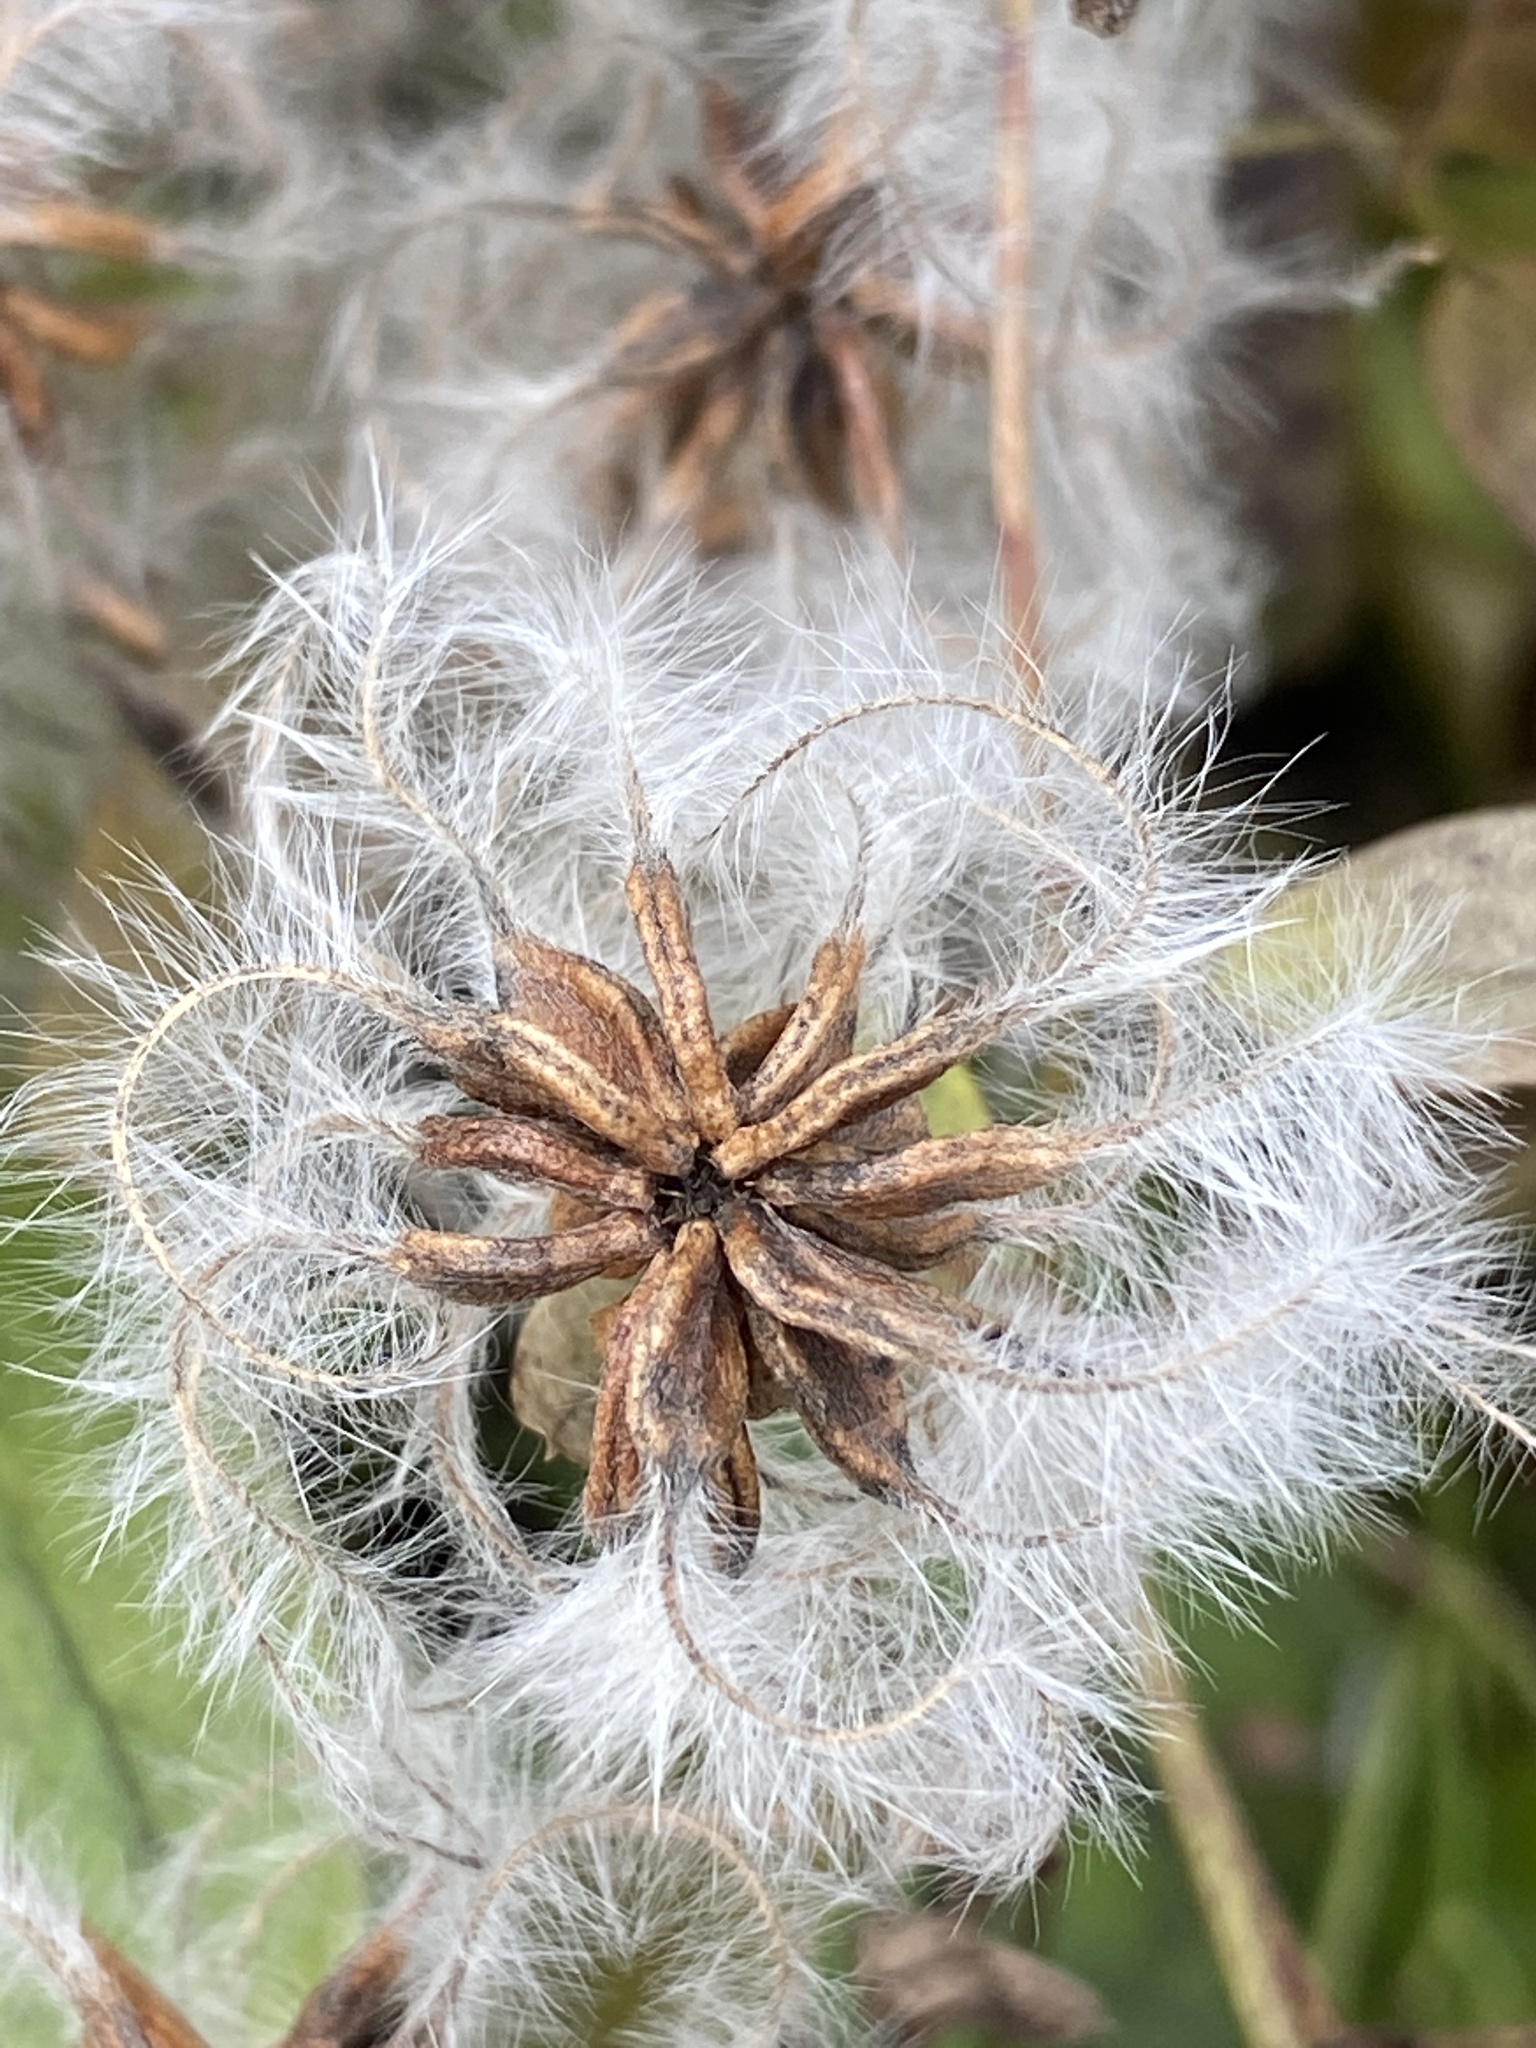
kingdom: Plantae
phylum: Tracheophyta
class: Magnoliopsida
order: Ranunculales
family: Ranunculaceae
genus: Clematis
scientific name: Clematis terniflora
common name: Sweet autumn clematis
